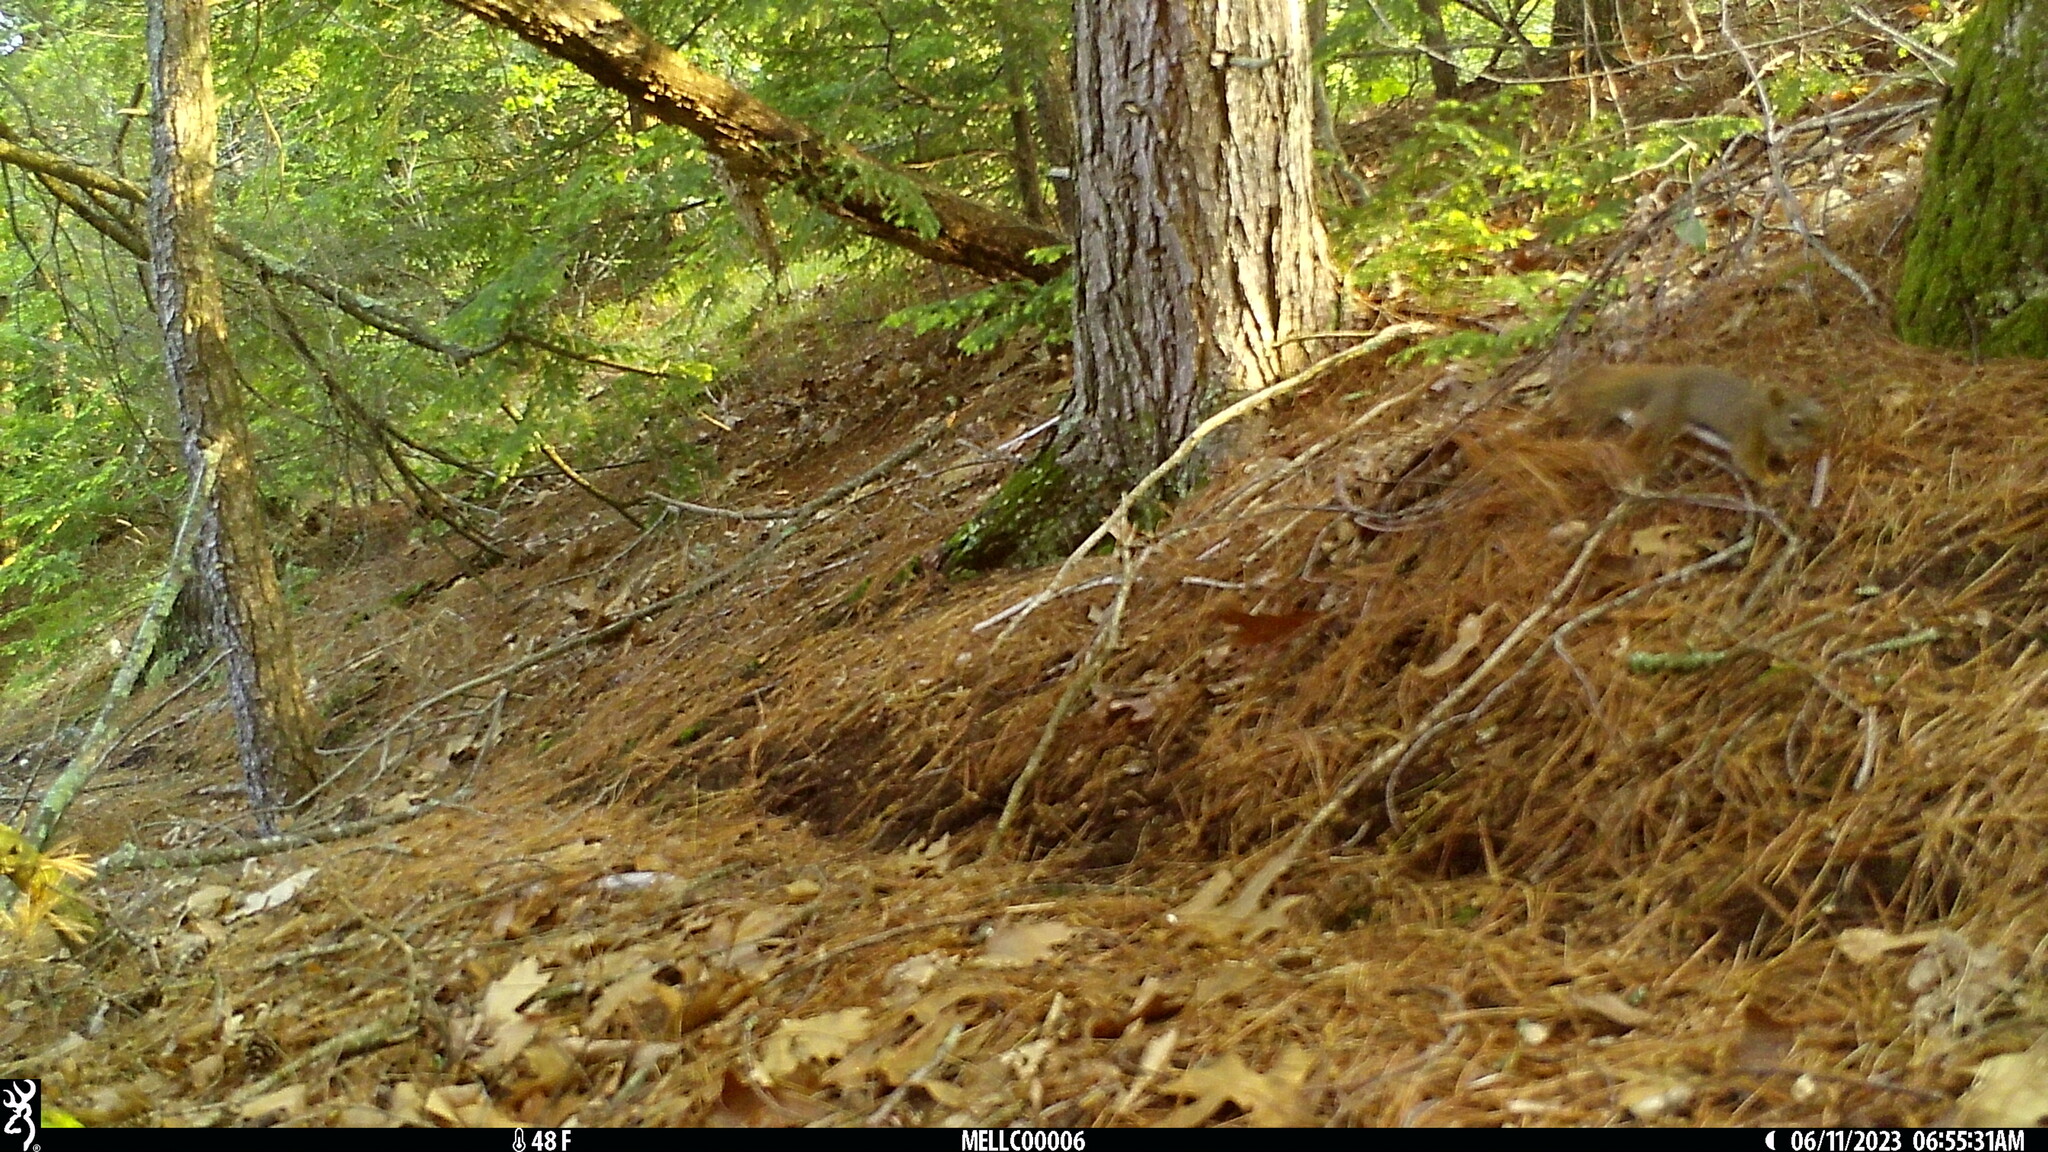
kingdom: Animalia
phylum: Chordata
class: Mammalia
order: Rodentia
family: Sciuridae
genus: Tamiasciurus
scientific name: Tamiasciurus hudsonicus
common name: Red squirrel
